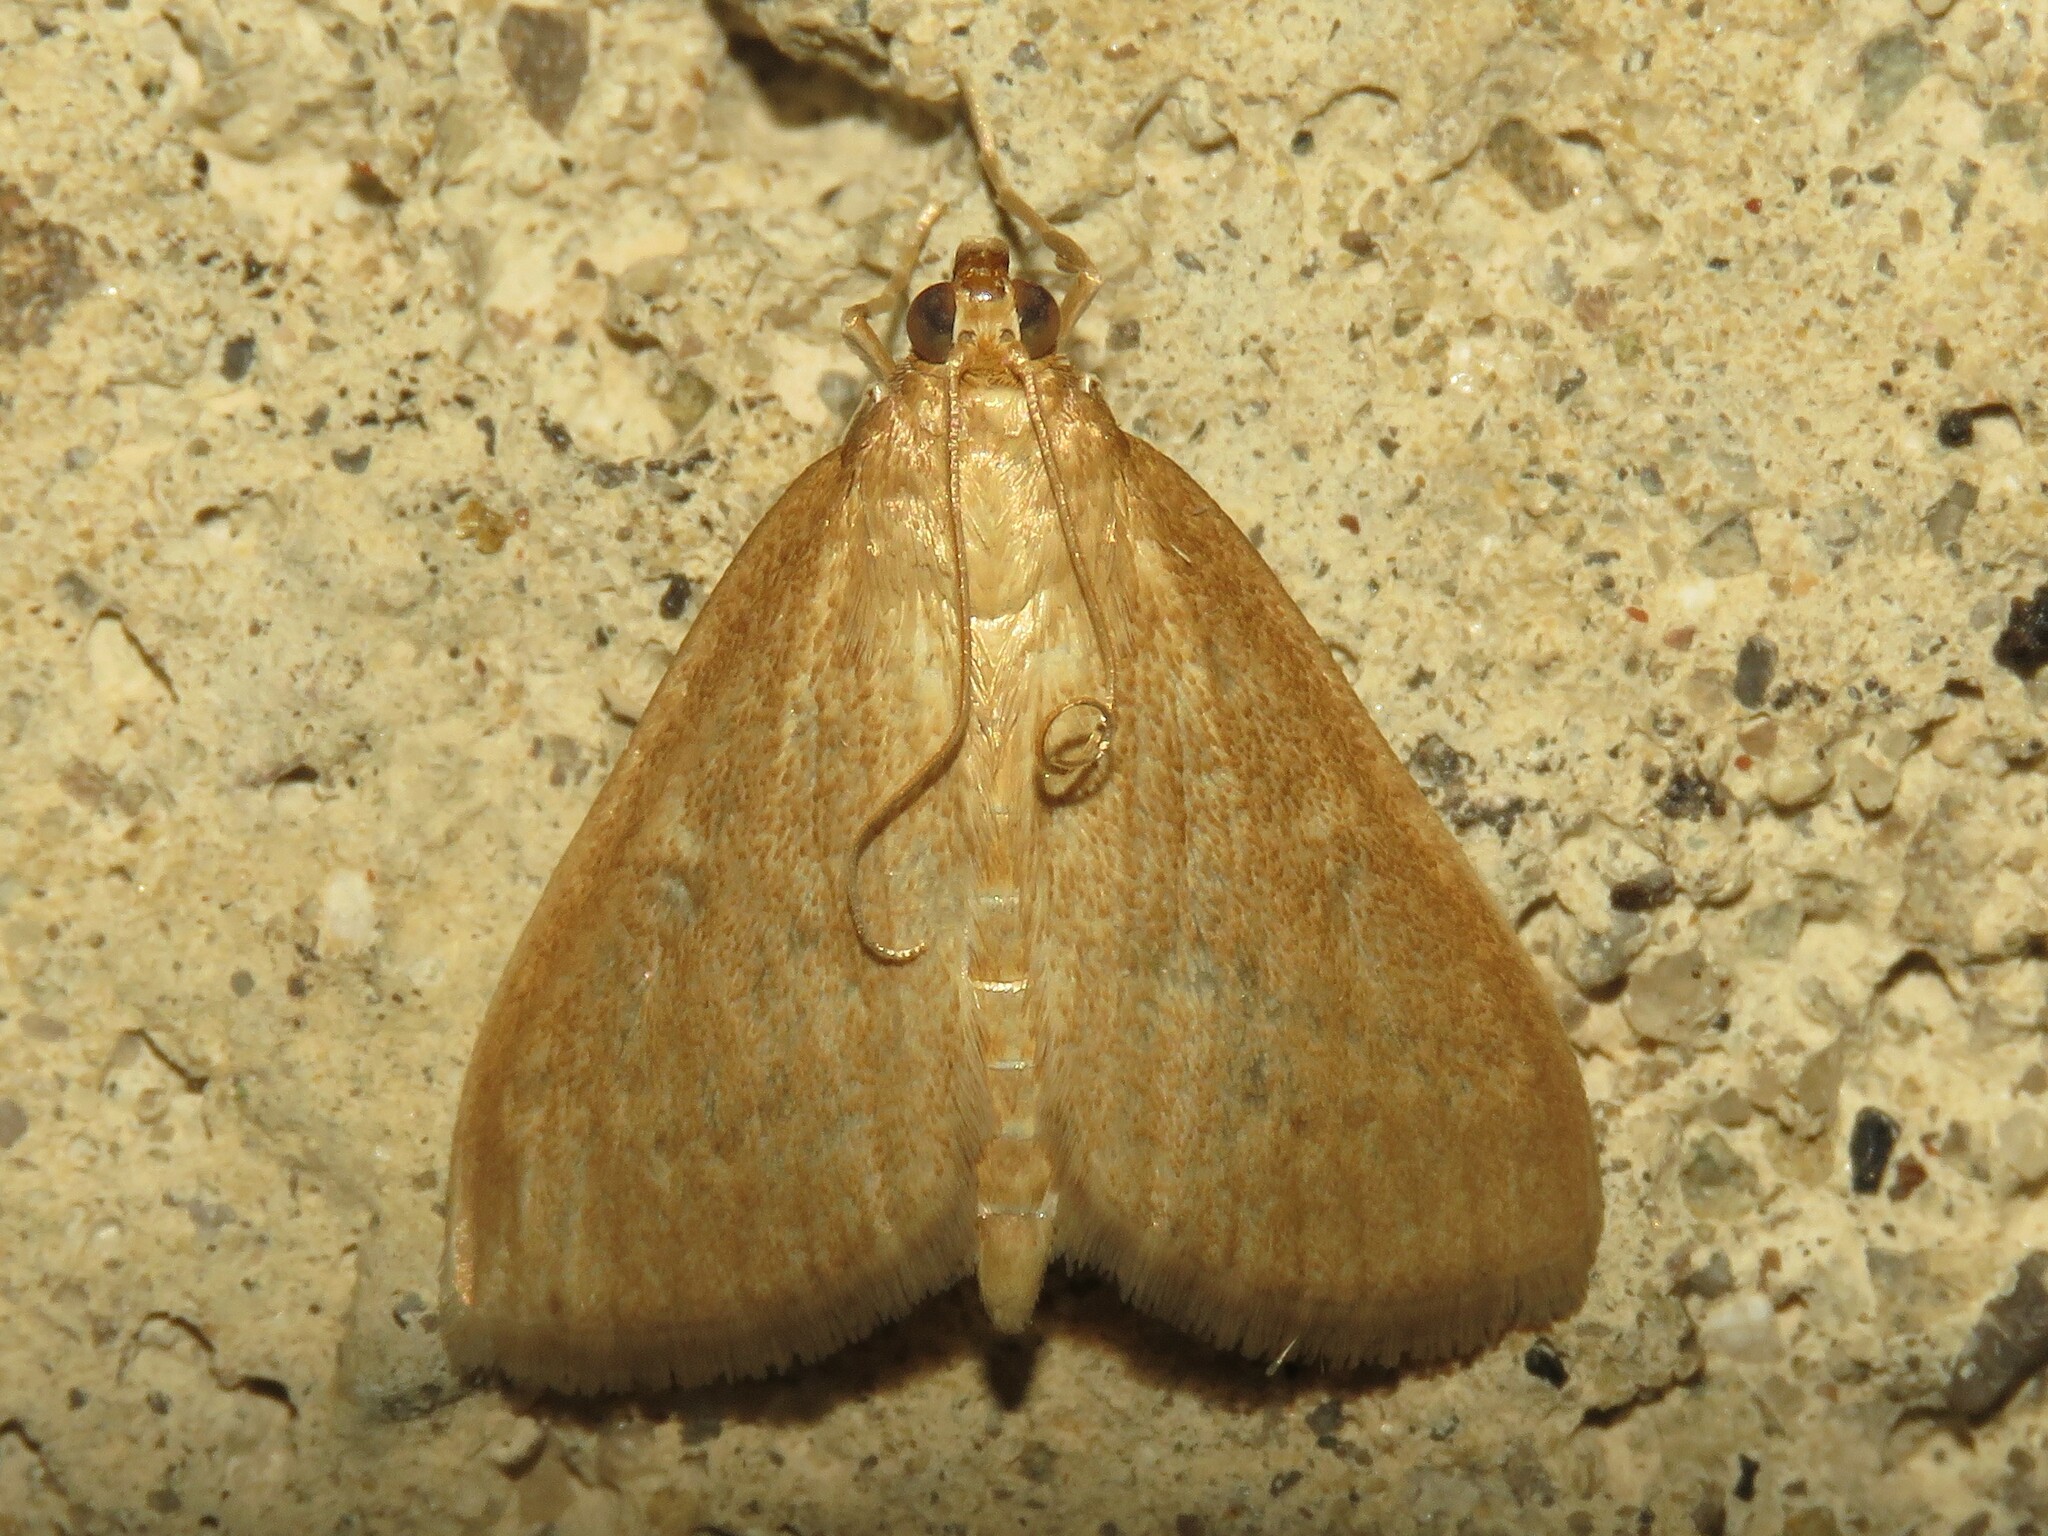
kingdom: Animalia
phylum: Arthropoda
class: Insecta
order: Lepidoptera
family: Crambidae
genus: Anania
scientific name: Anania Framinghamia helvalis
